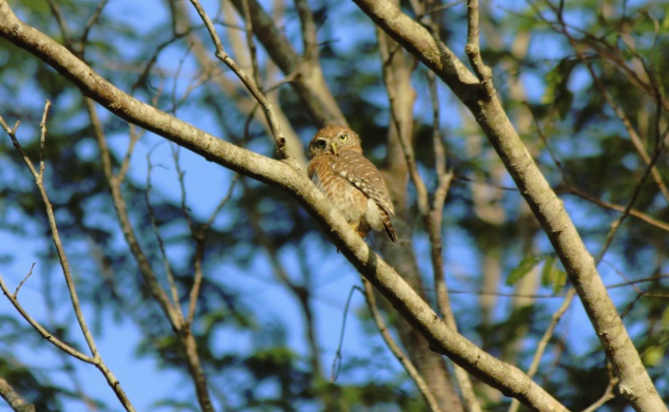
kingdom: Animalia
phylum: Chordata
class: Aves
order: Strigiformes
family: Strigidae
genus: Glaucidium
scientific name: Glaucidium siju
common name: Cuban pygmy-owl
